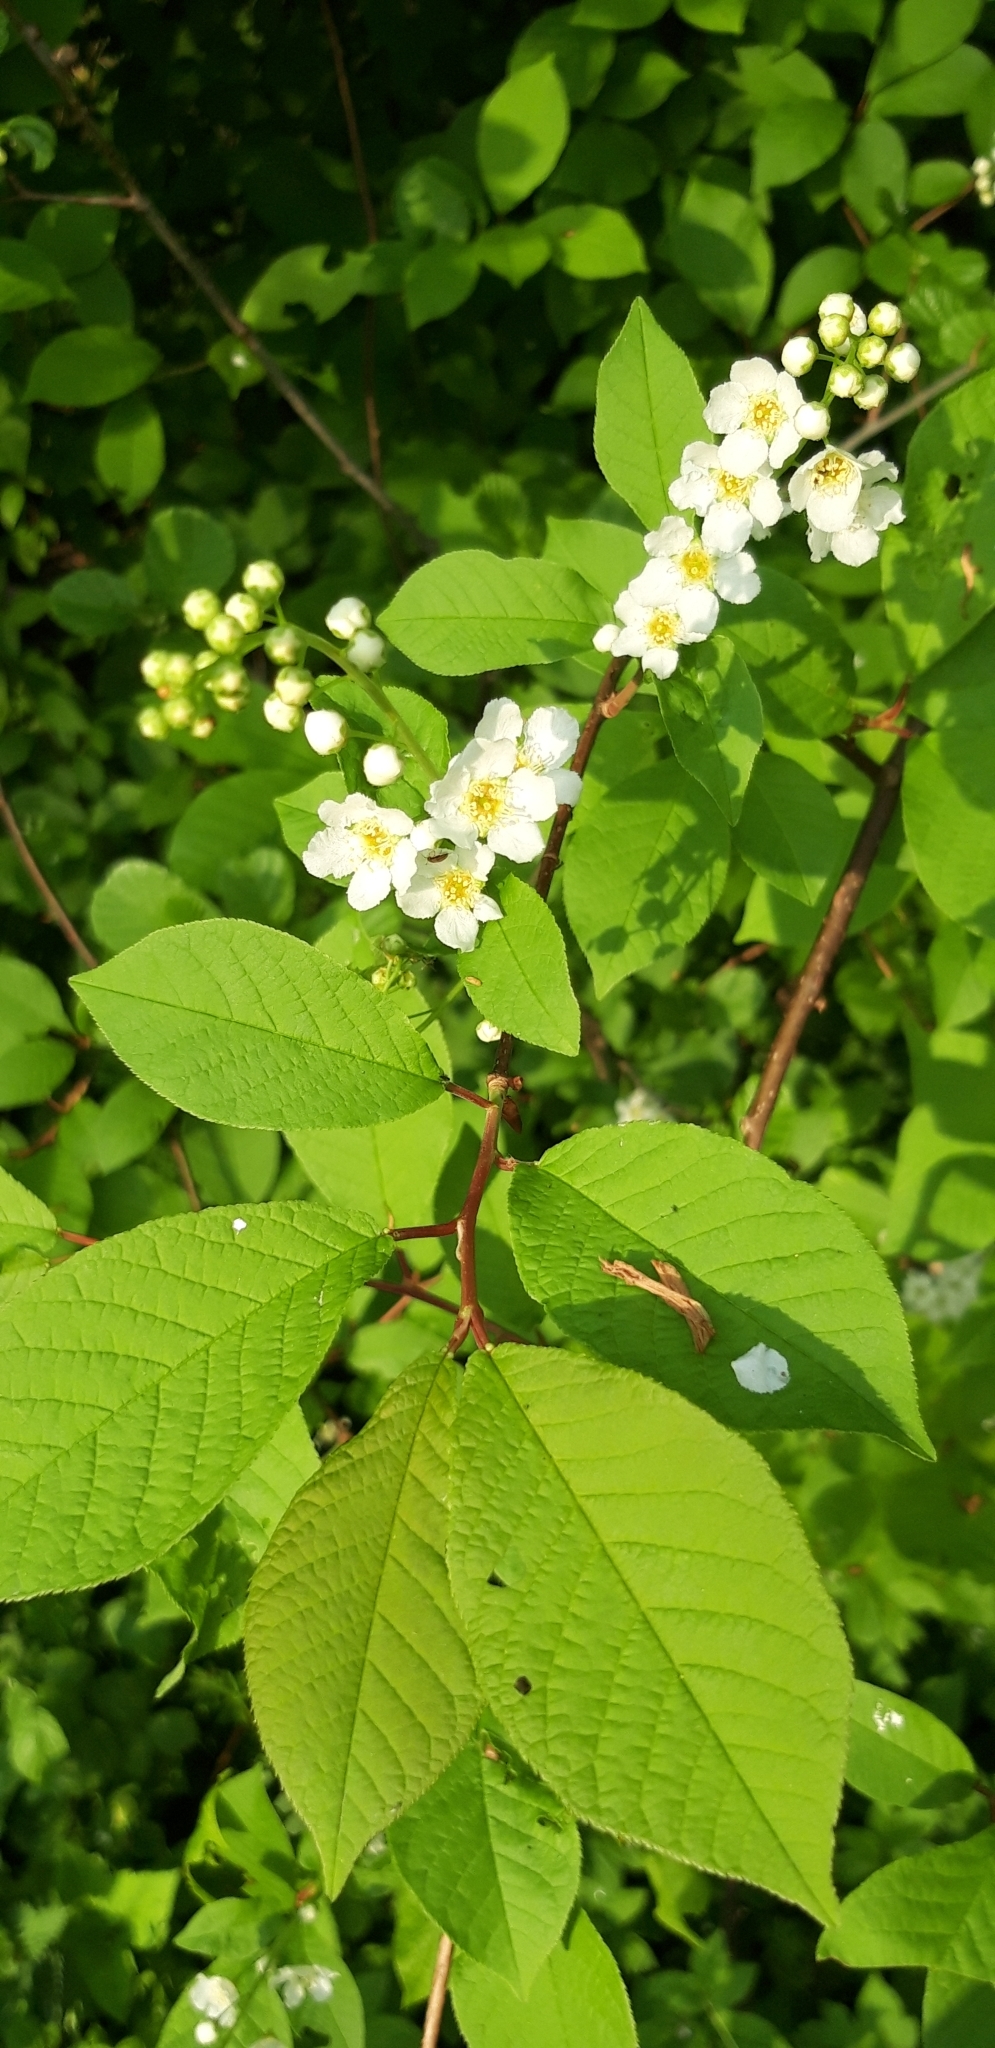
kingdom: Plantae
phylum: Tracheophyta
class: Magnoliopsida
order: Rosales
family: Rosaceae
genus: Prunus
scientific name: Prunus padus
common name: Bird cherry
